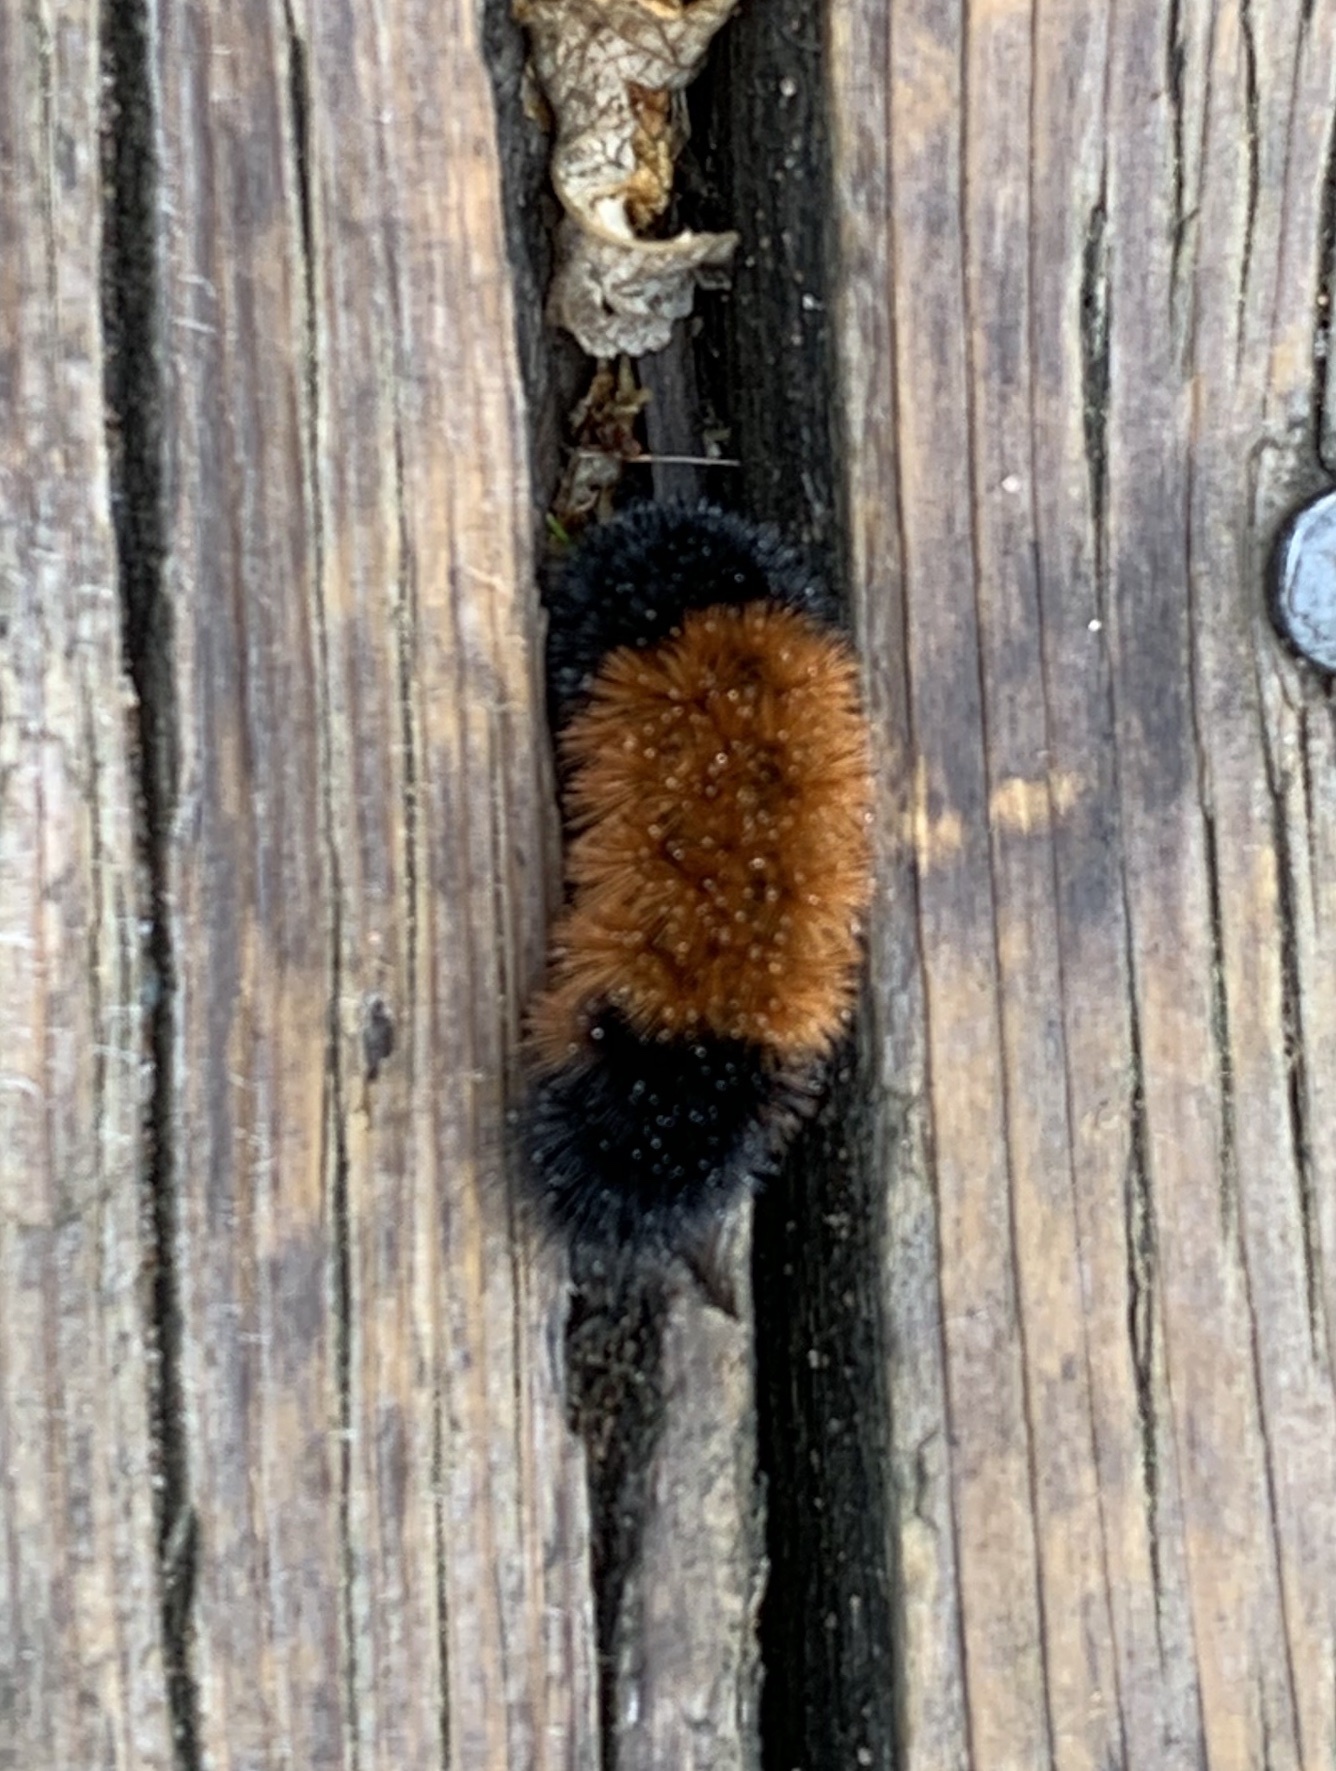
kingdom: Animalia
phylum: Arthropoda
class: Insecta
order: Lepidoptera
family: Erebidae
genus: Pyrrharctia
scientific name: Pyrrharctia isabella
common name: Isabella tiger moth
